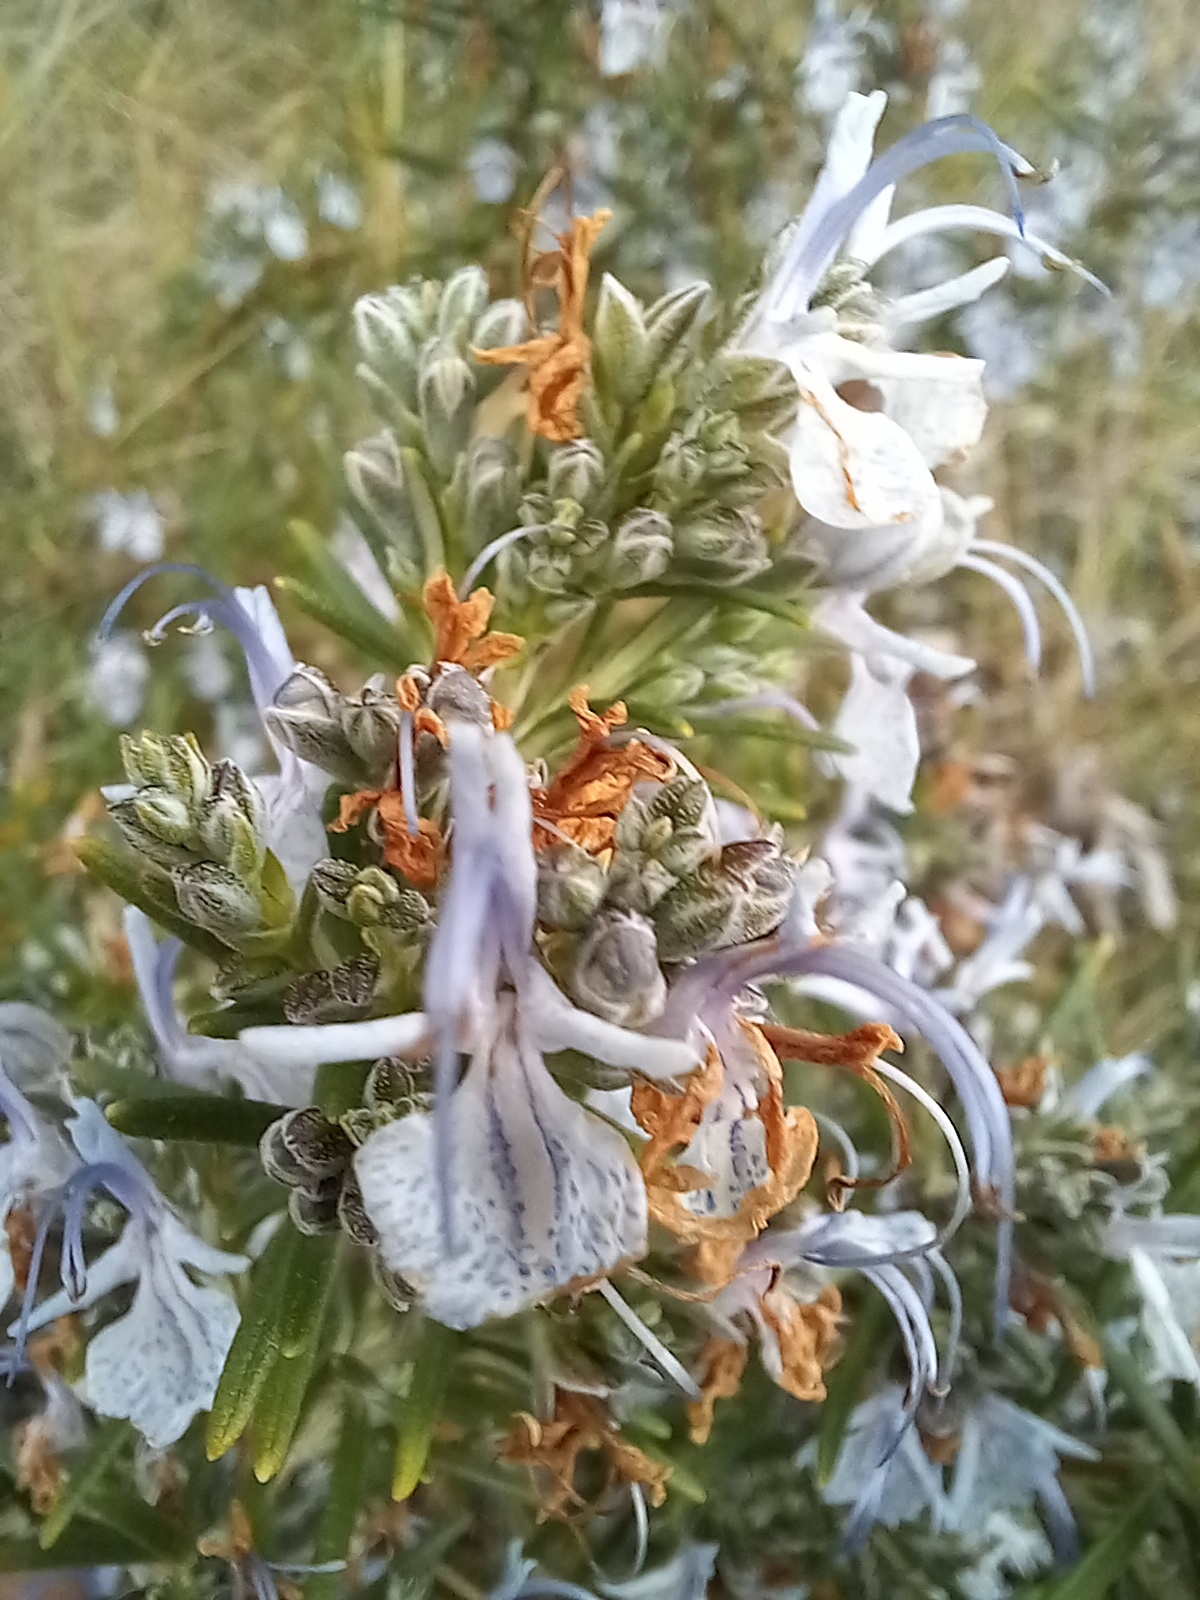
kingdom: Plantae
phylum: Tracheophyta
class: Magnoliopsida
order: Lamiales
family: Lamiaceae
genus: Salvia
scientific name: Salvia rosmarinus
